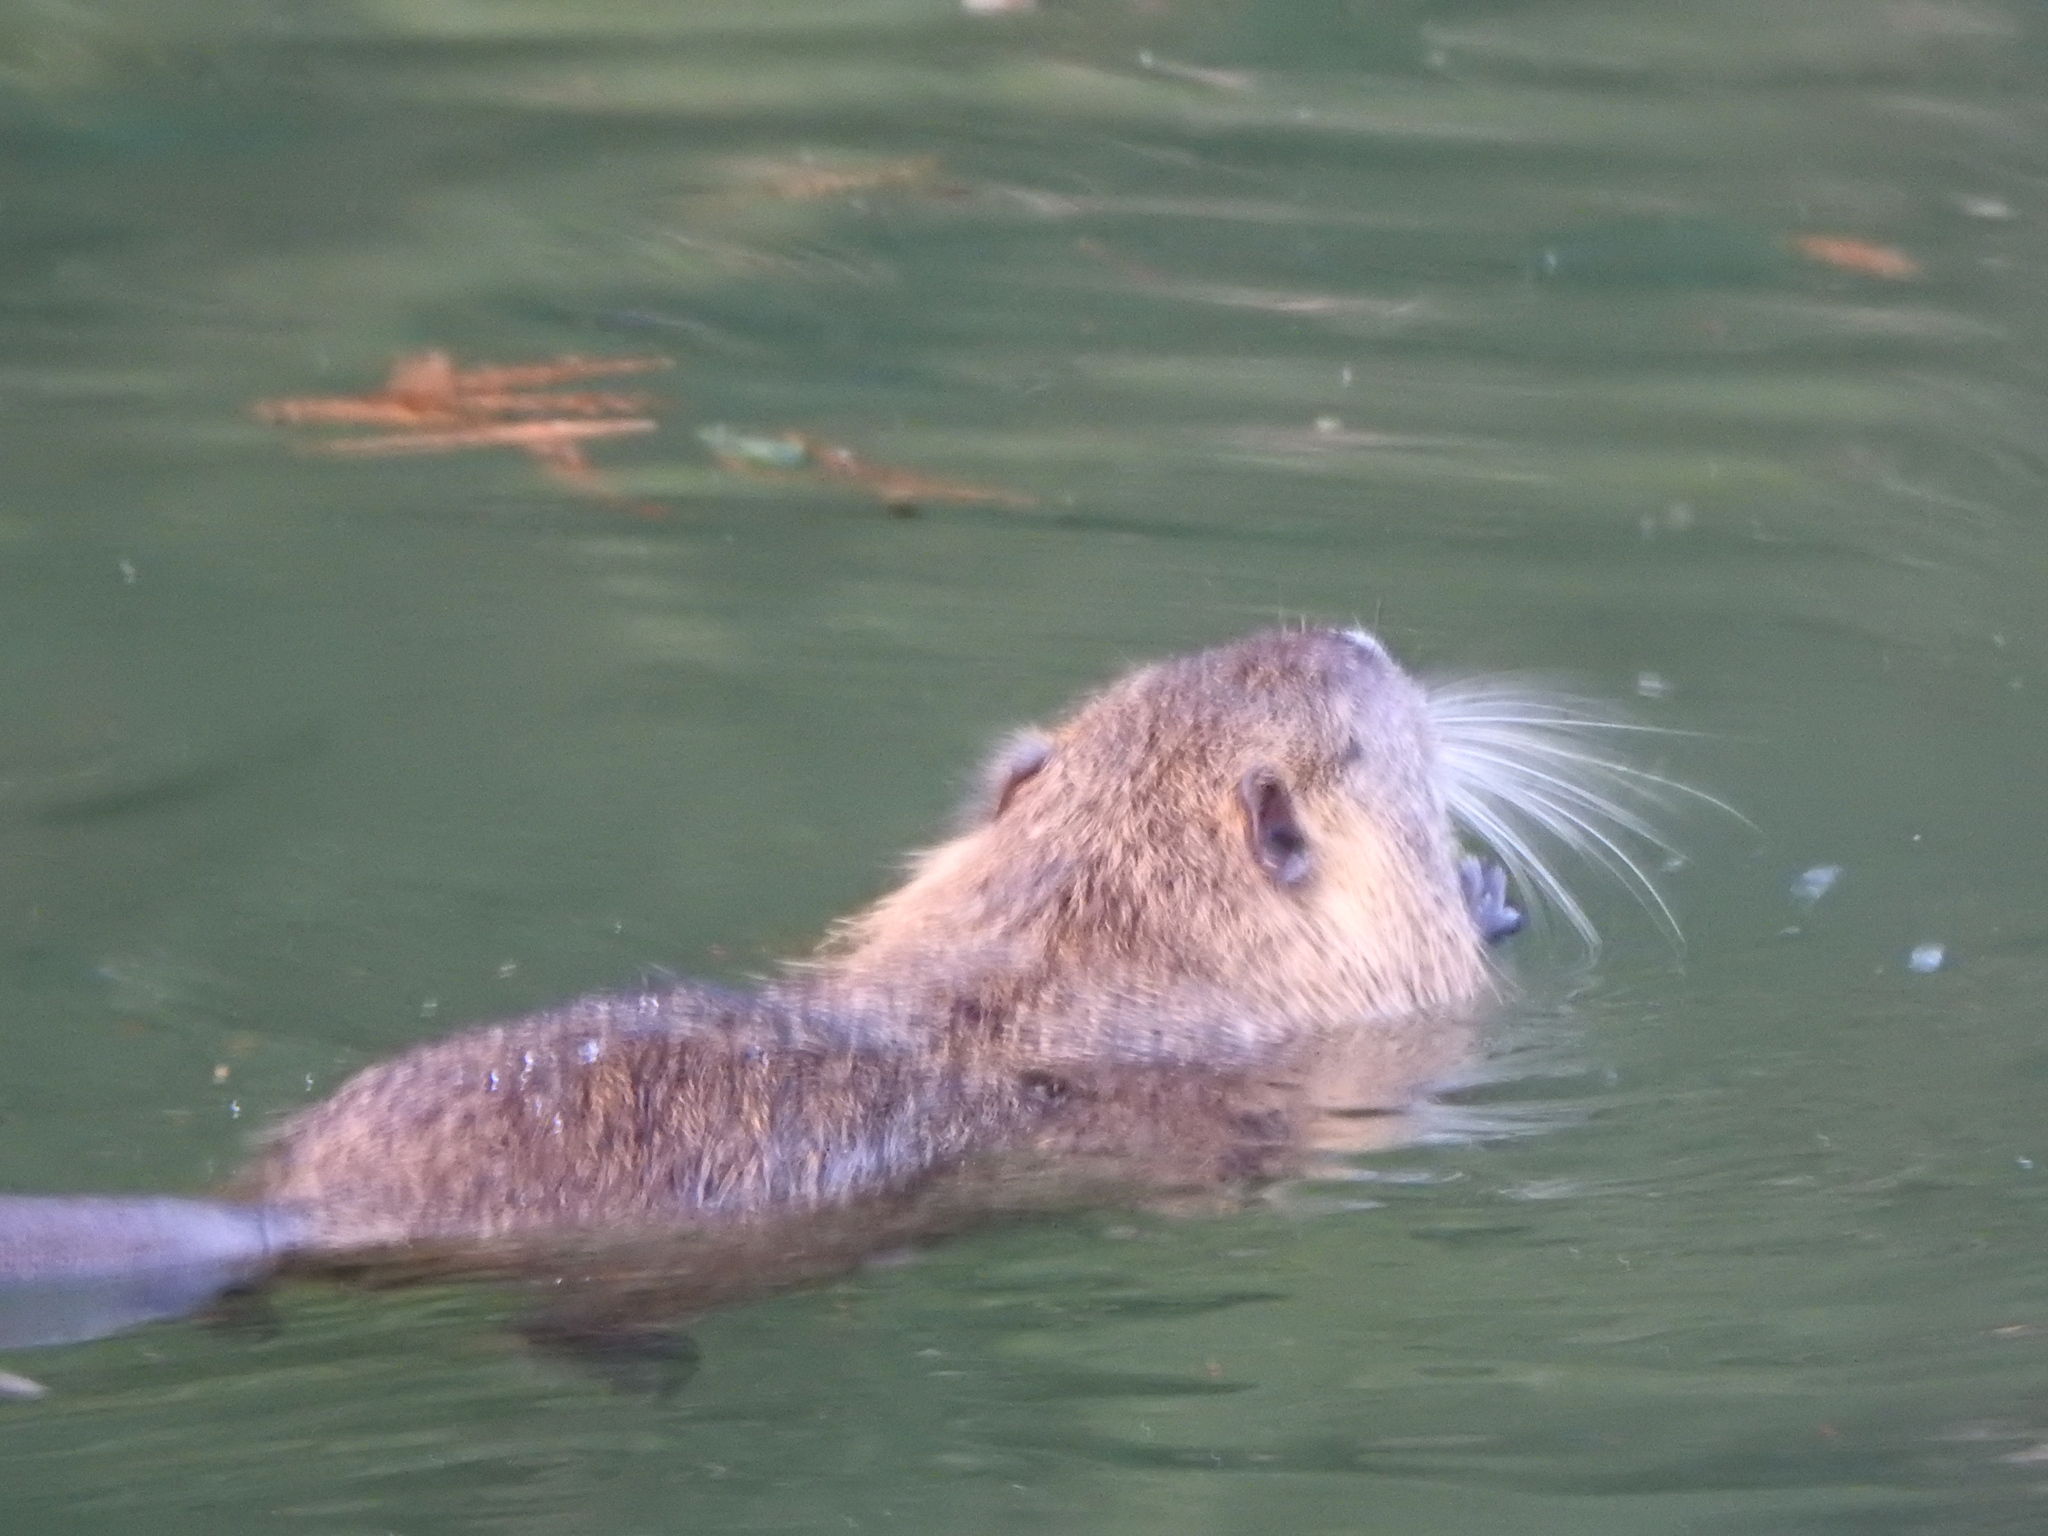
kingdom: Animalia
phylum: Chordata
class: Mammalia
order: Rodentia
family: Myocastoridae
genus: Myocastor
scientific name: Myocastor coypus
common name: Coypu
